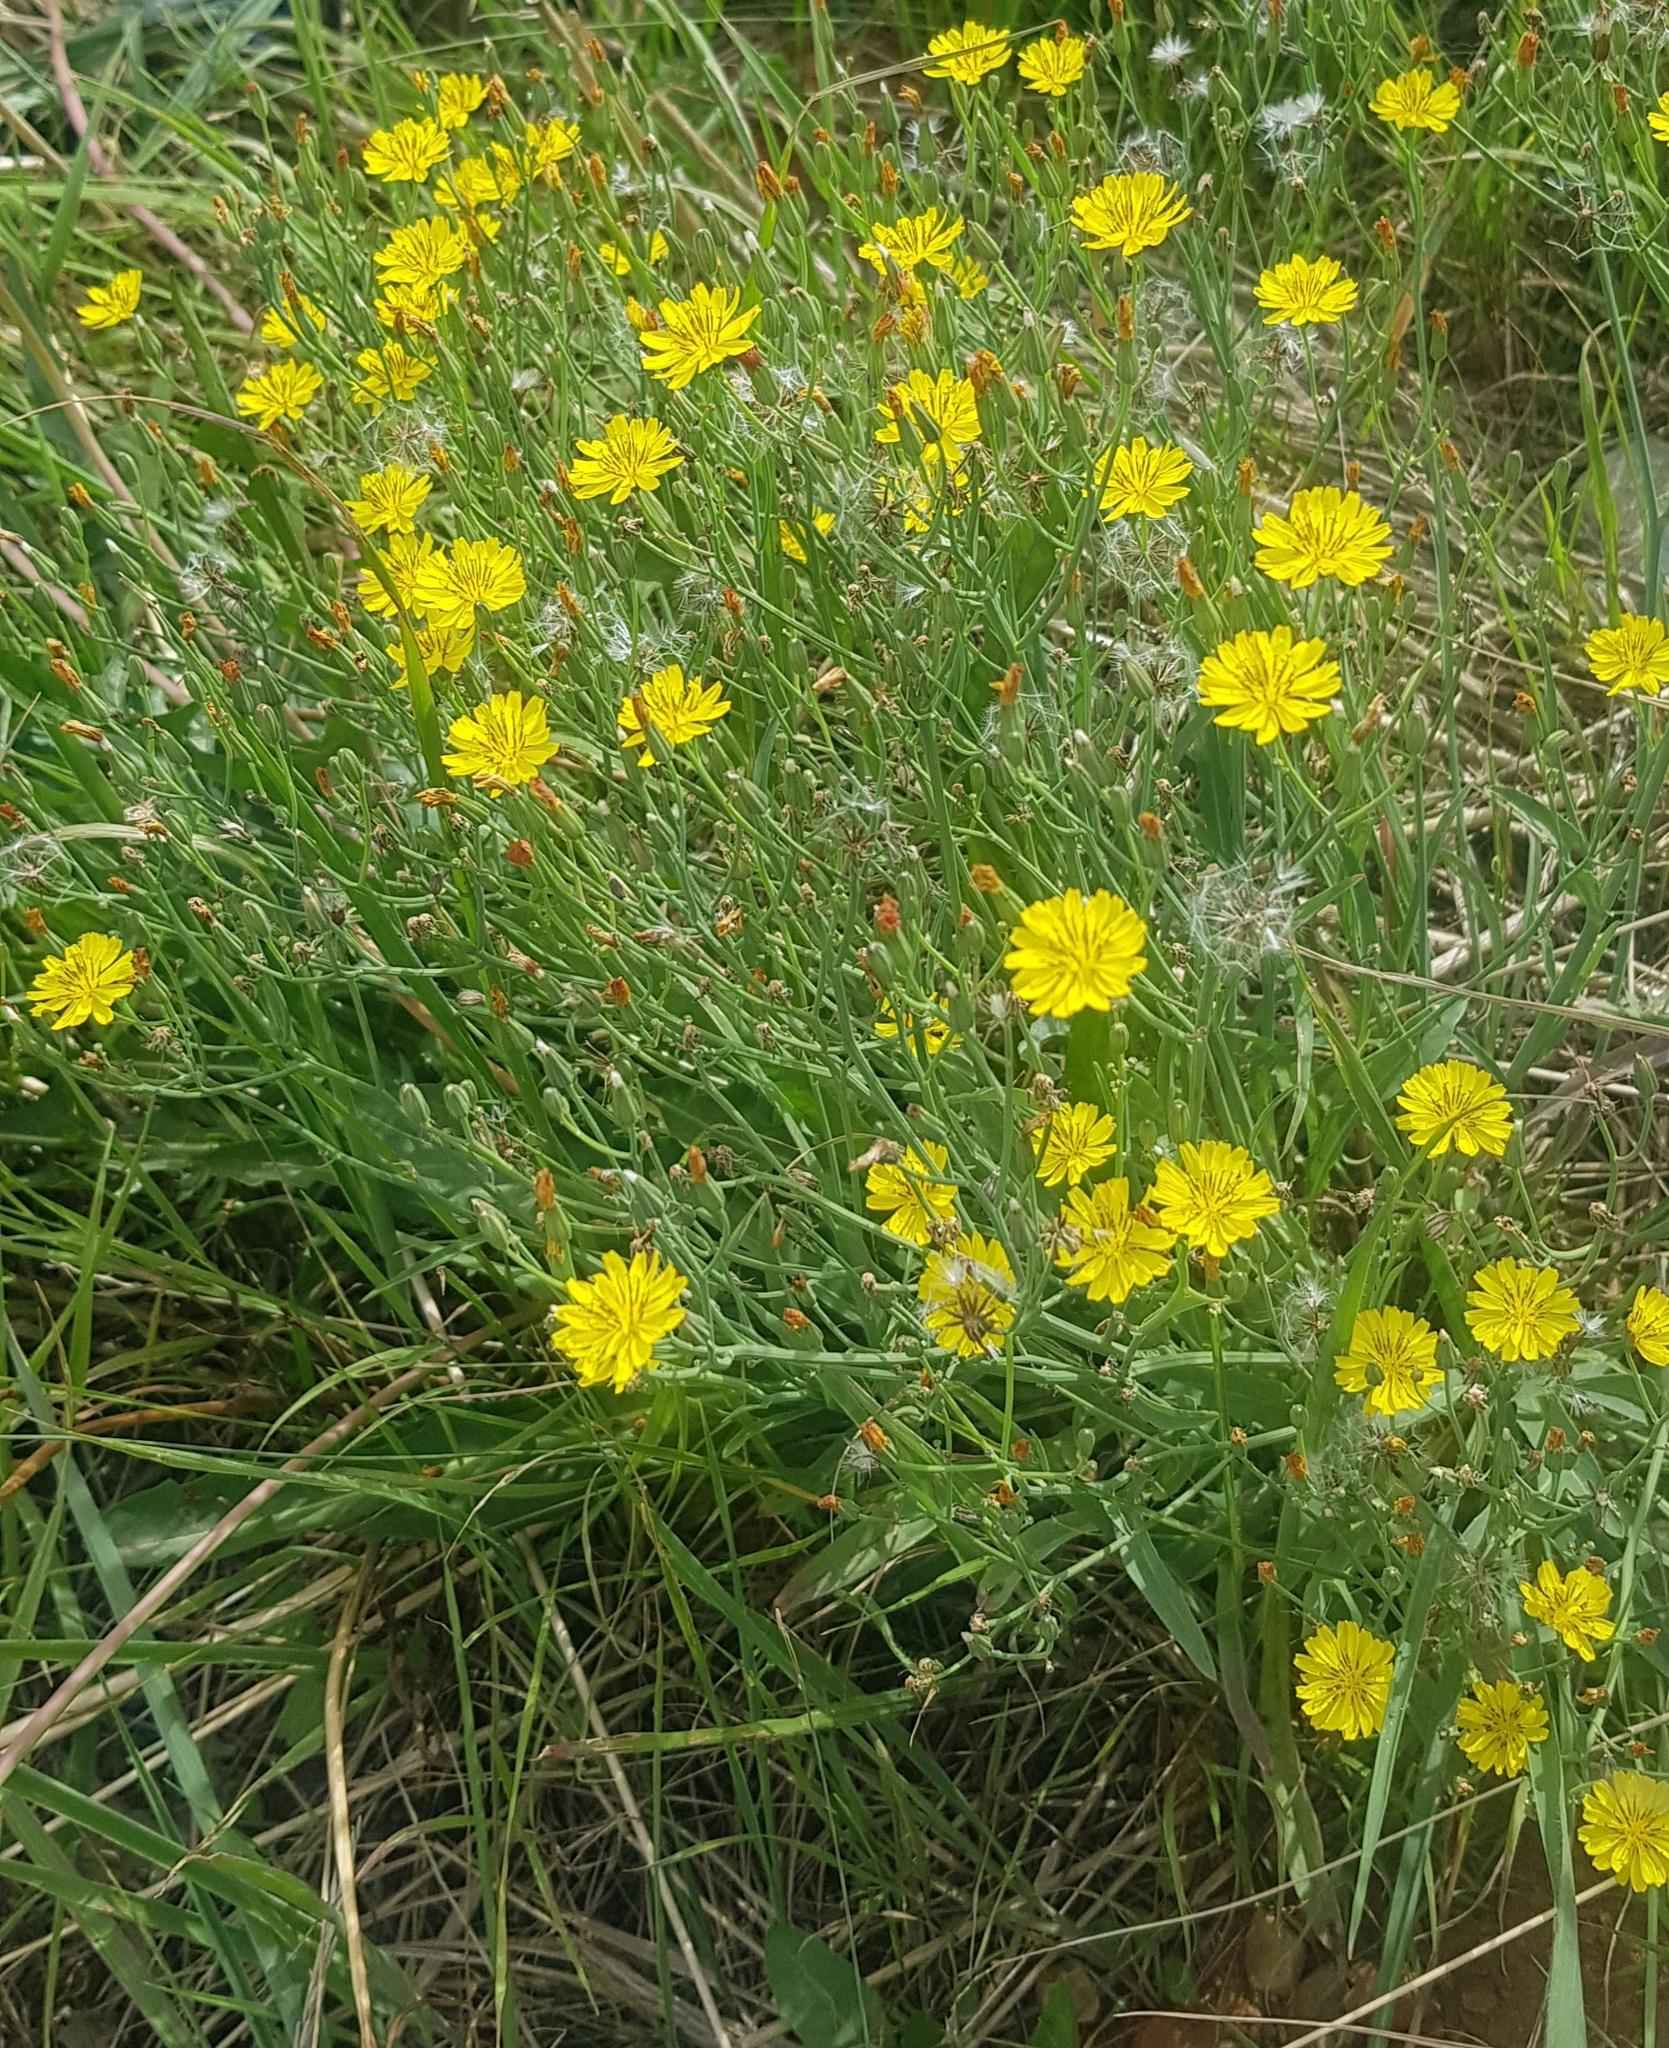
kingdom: Plantae
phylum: Tracheophyta
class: Magnoliopsida
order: Asterales
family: Asteraceae
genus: Crepidiastrum
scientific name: Crepidiastrum tenuifolium
